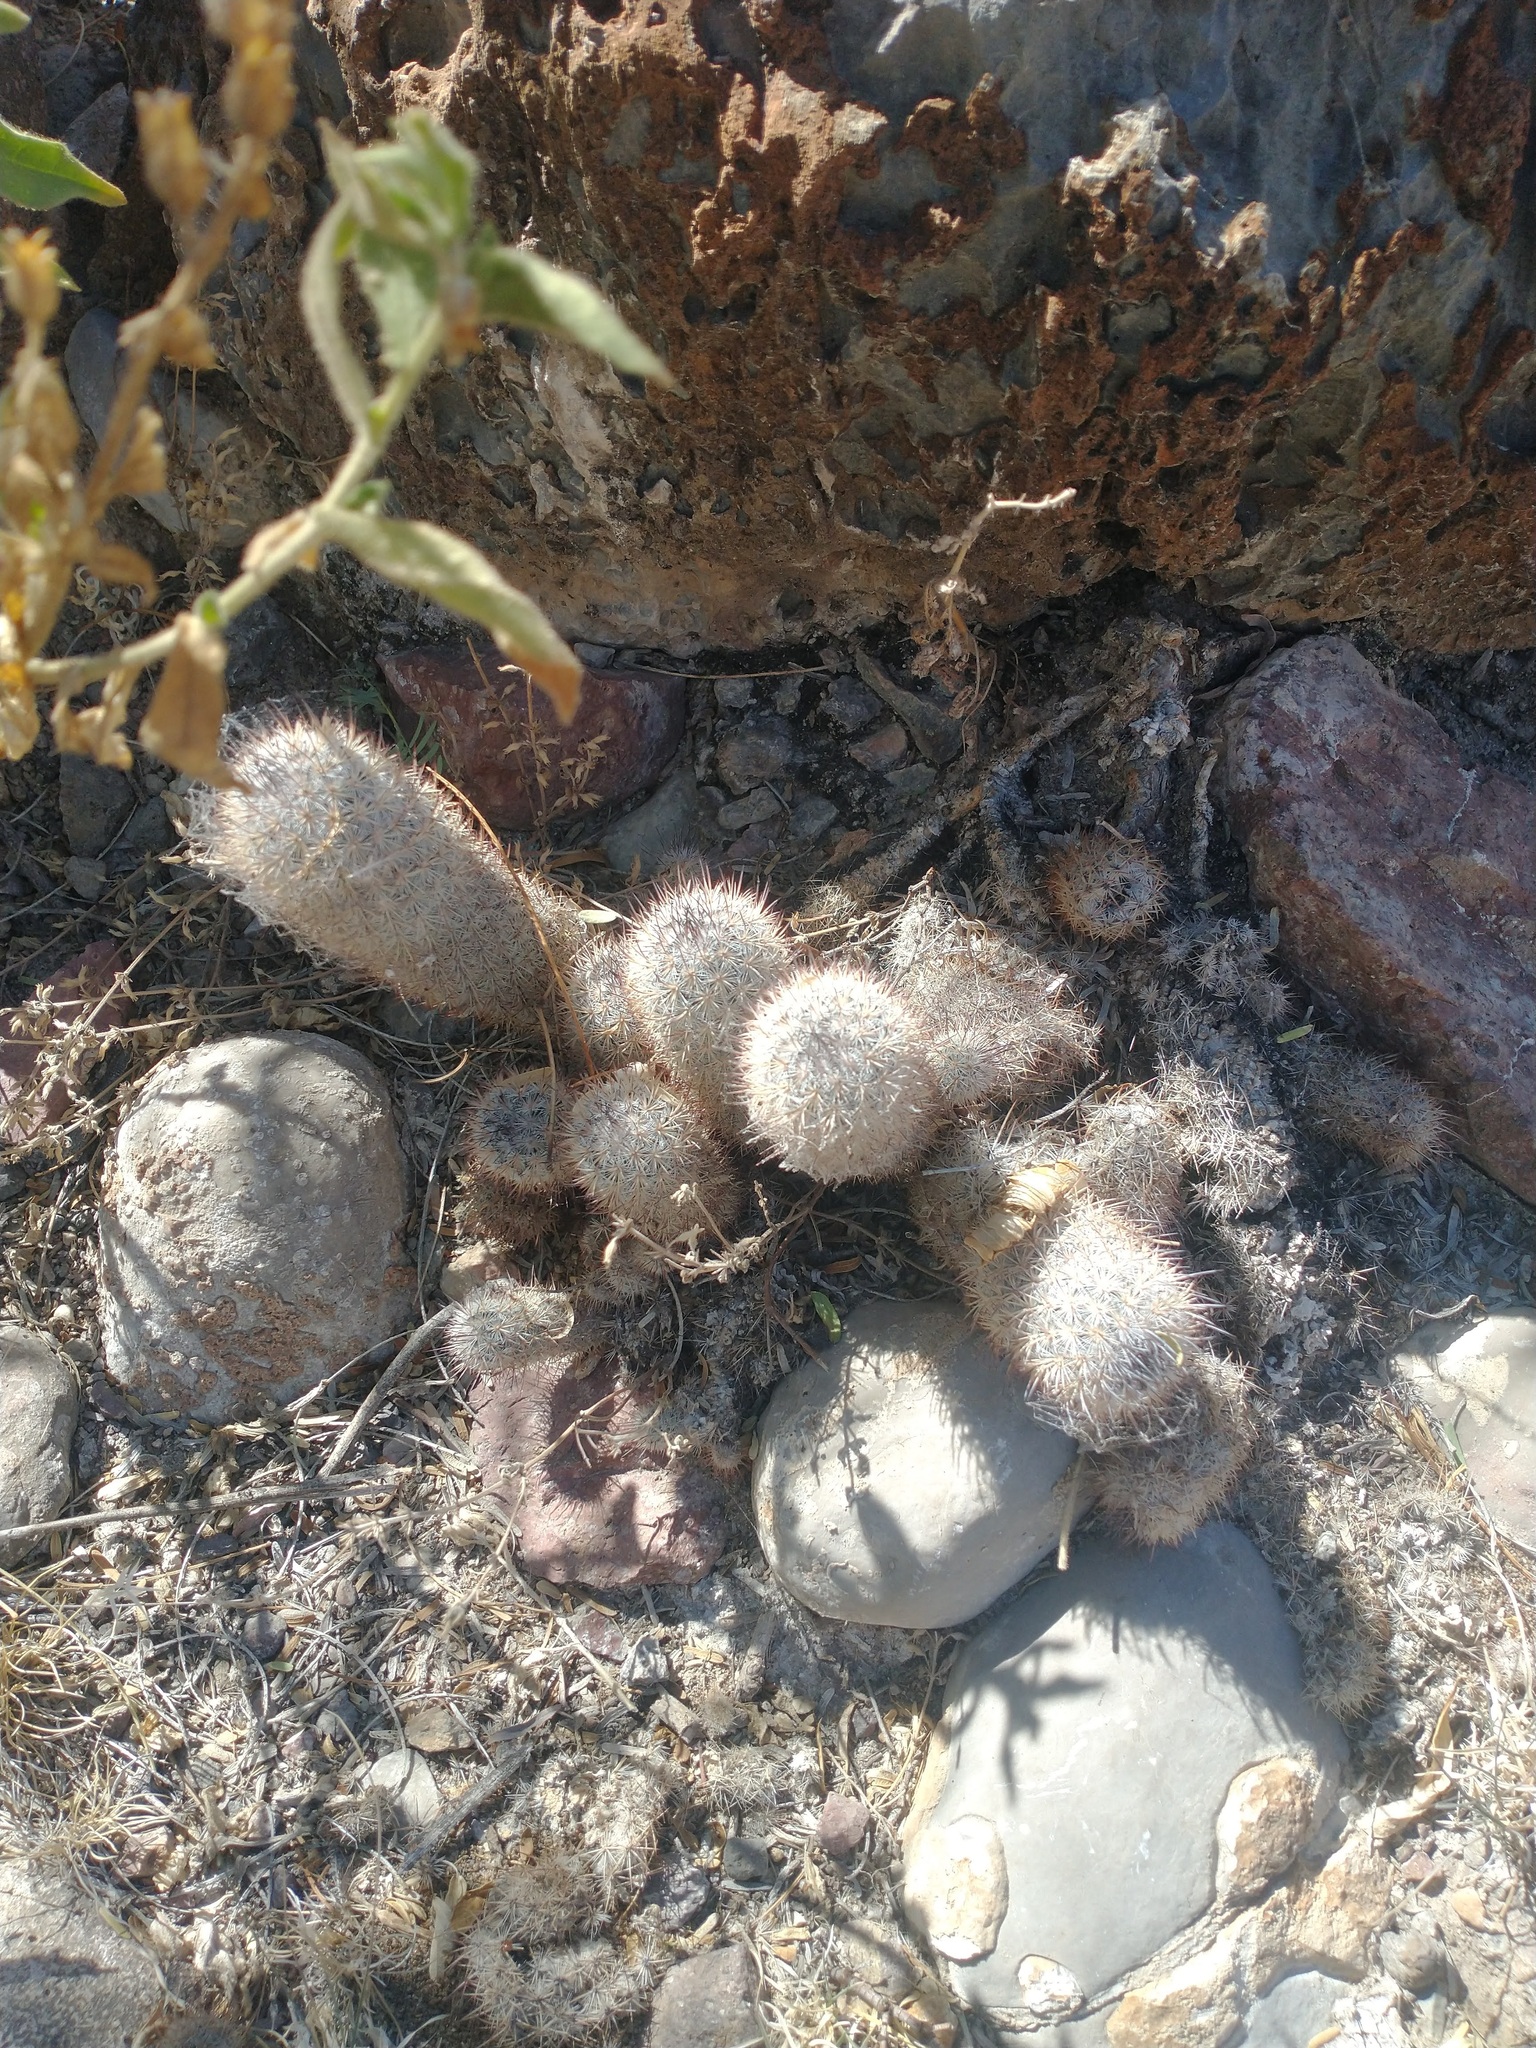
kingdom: Plantae
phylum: Tracheophyta
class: Magnoliopsida
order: Caryophyllales
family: Cactaceae
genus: Mammillaria
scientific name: Mammillaria pottsii
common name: Pott's nipple-cactus
